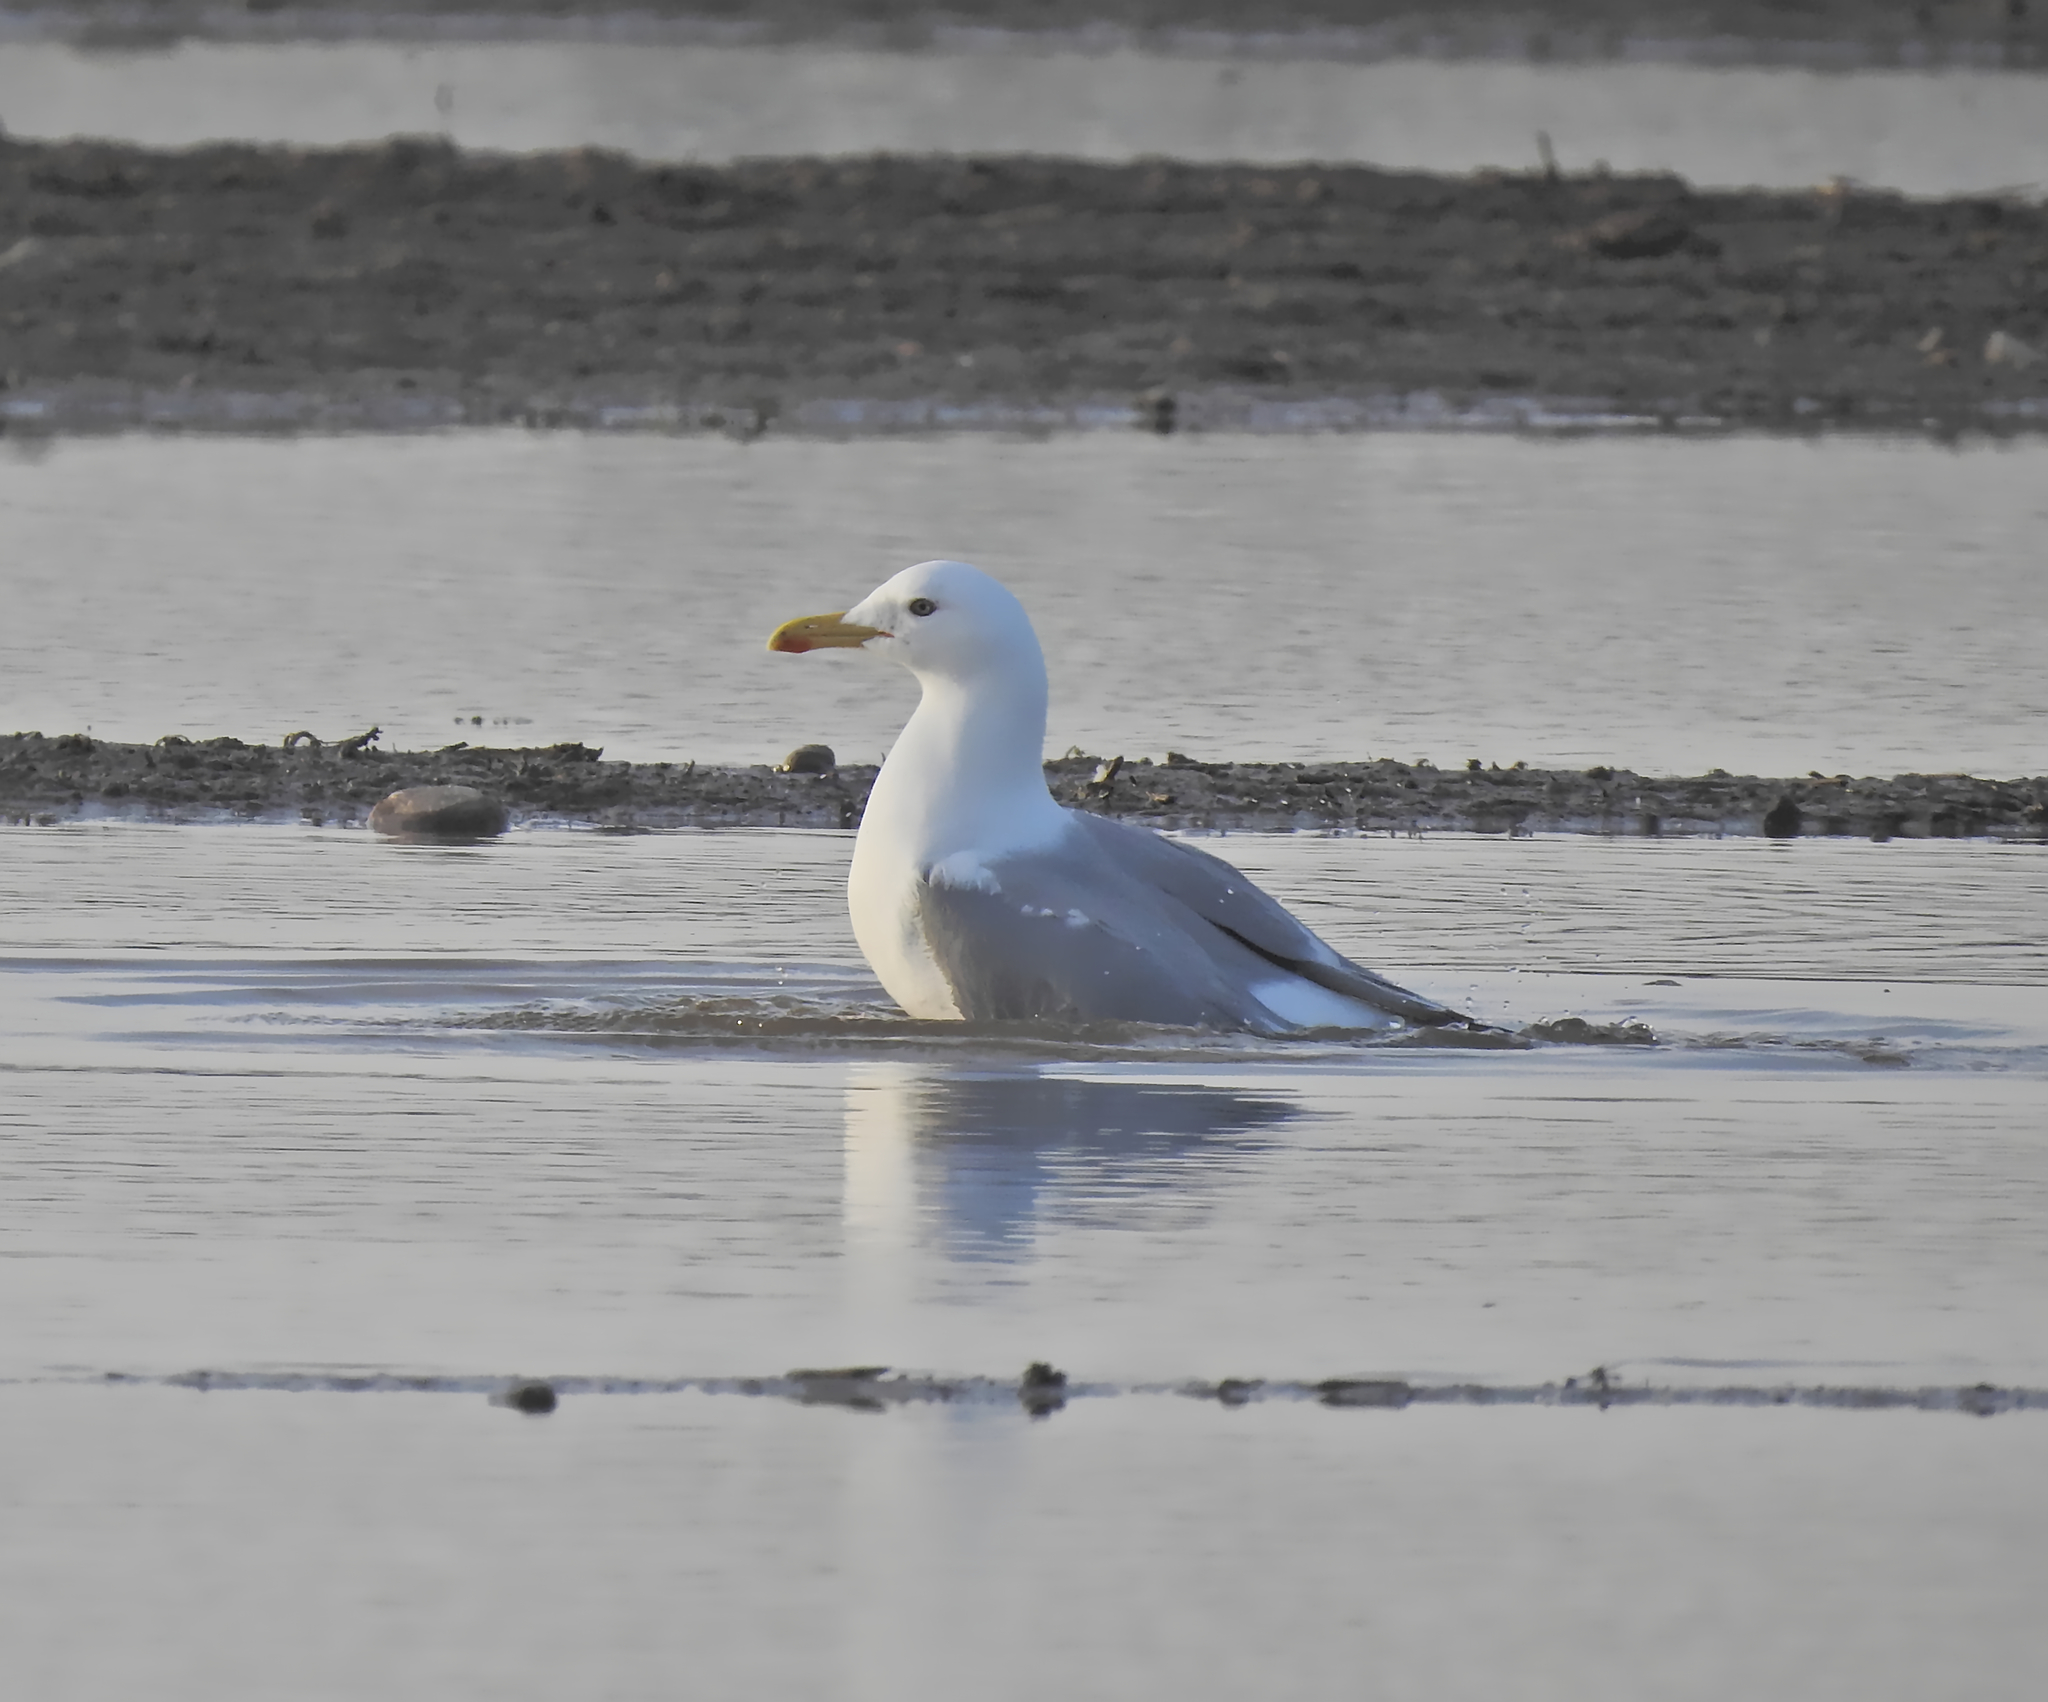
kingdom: Animalia
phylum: Chordata
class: Aves
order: Charadriiformes
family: Laridae
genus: Larus
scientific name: Larus argentatus
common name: Herring gull
